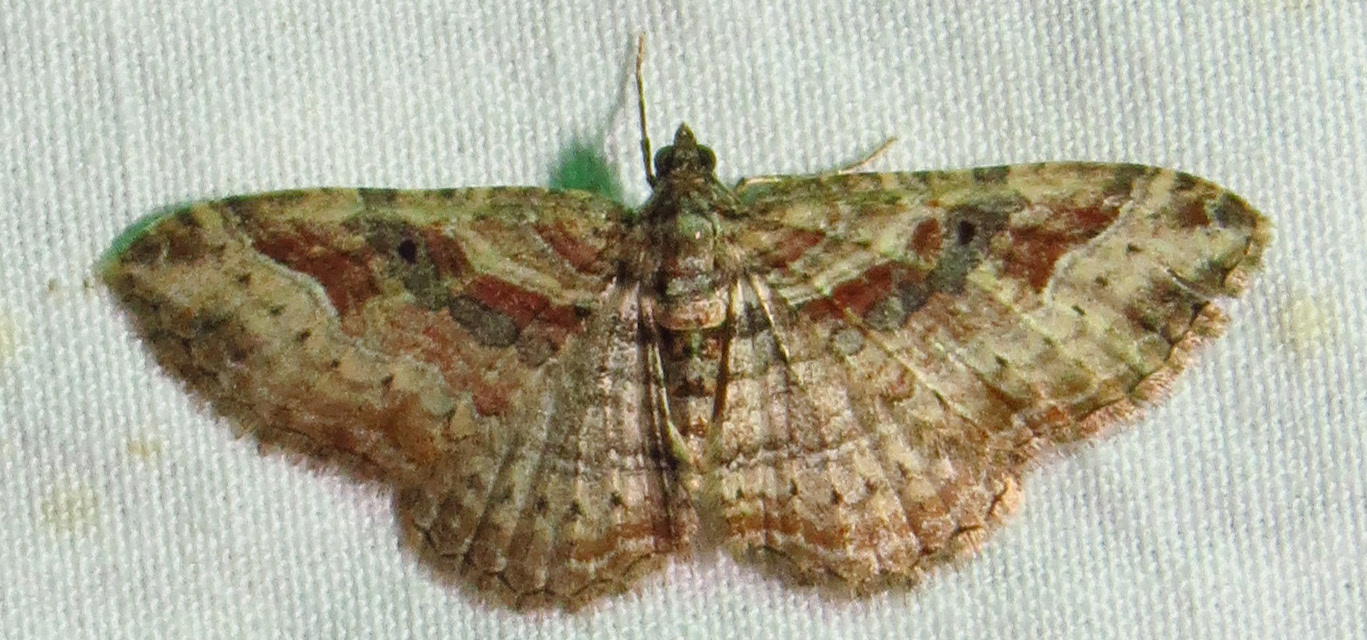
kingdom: Animalia
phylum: Arthropoda
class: Insecta
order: Lepidoptera
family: Geometridae
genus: Costaconvexa
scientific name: Costaconvexa centrostrigaria
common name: Bent-line carpet
